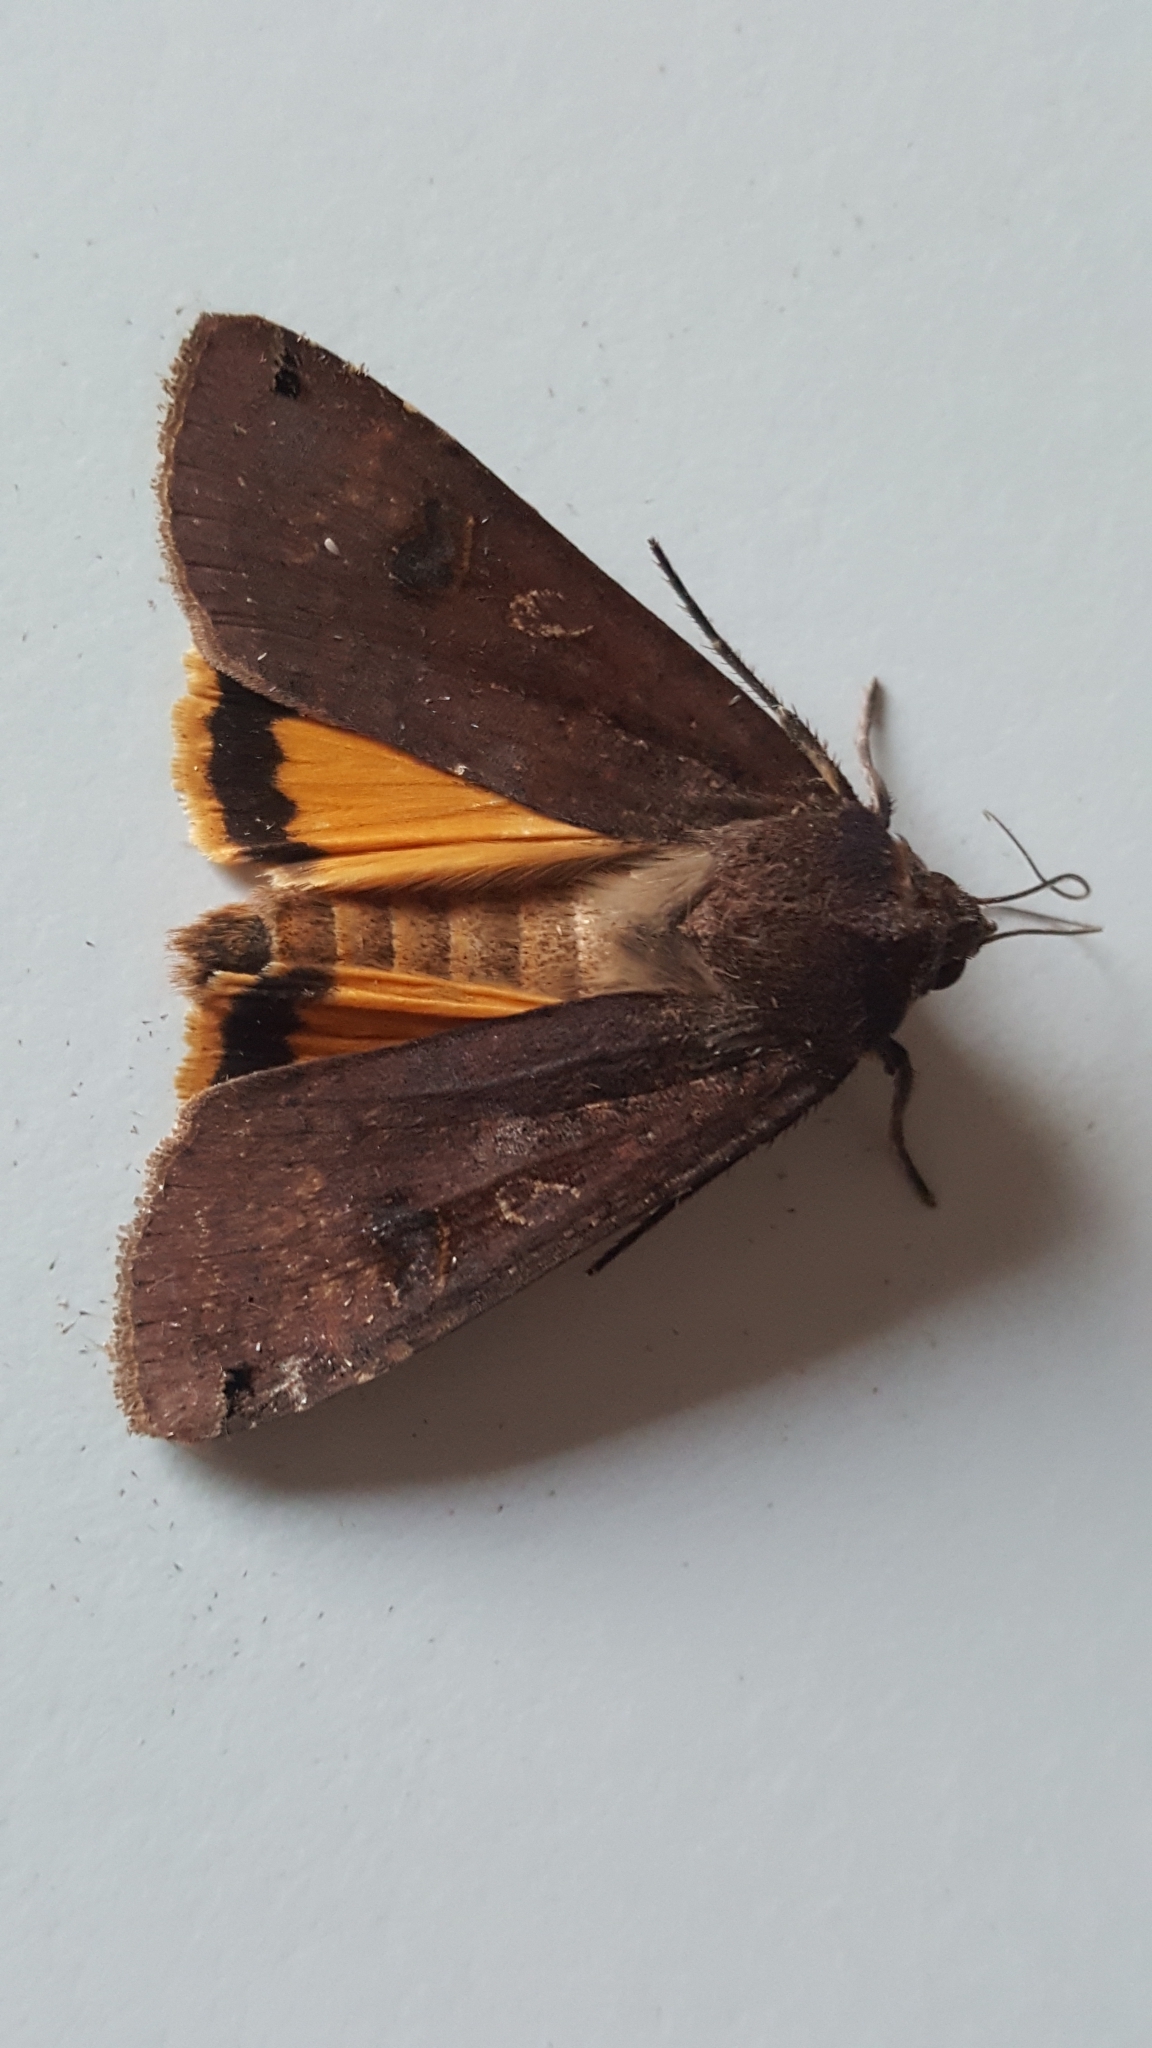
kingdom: Animalia
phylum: Arthropoda
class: Insecta
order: Lepidoptera
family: Noctuidae
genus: Noctua
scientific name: Noctua pronuba
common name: Large yellow underwing
